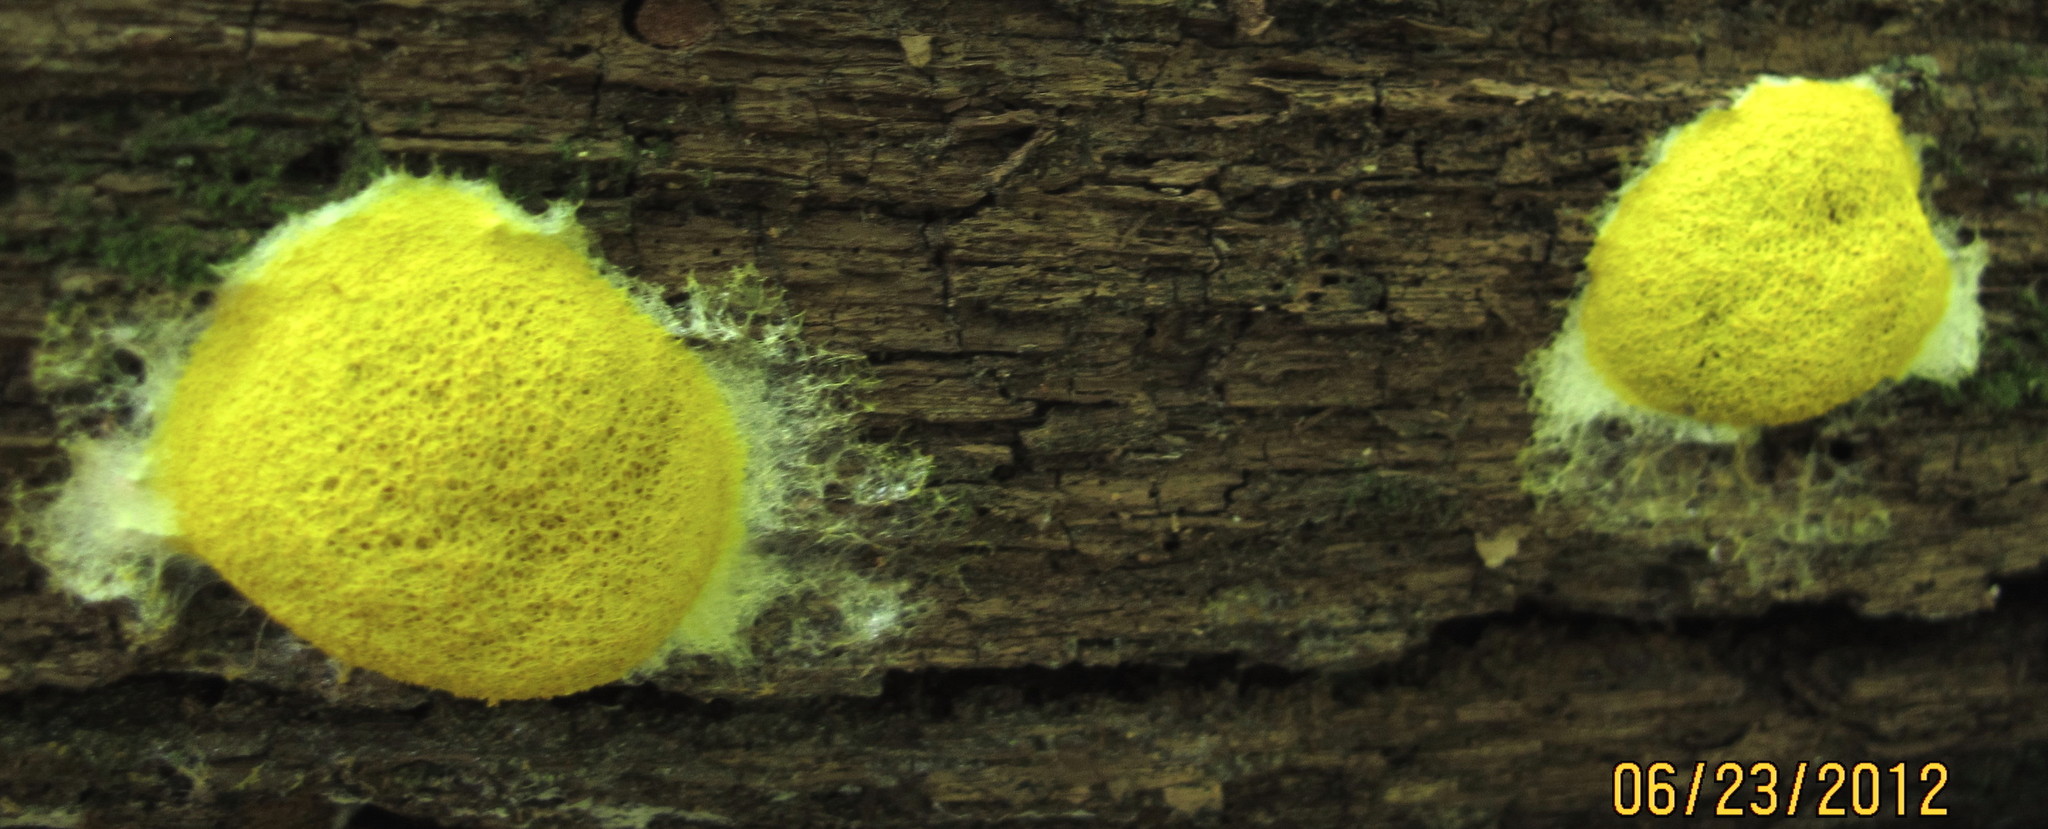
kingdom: Protozoa
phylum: Mycetozoa
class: Myxomycetes
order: Physarales
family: Physaraceae
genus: Fuligo
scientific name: Fuligo septica
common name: Dog vomit slime mold
